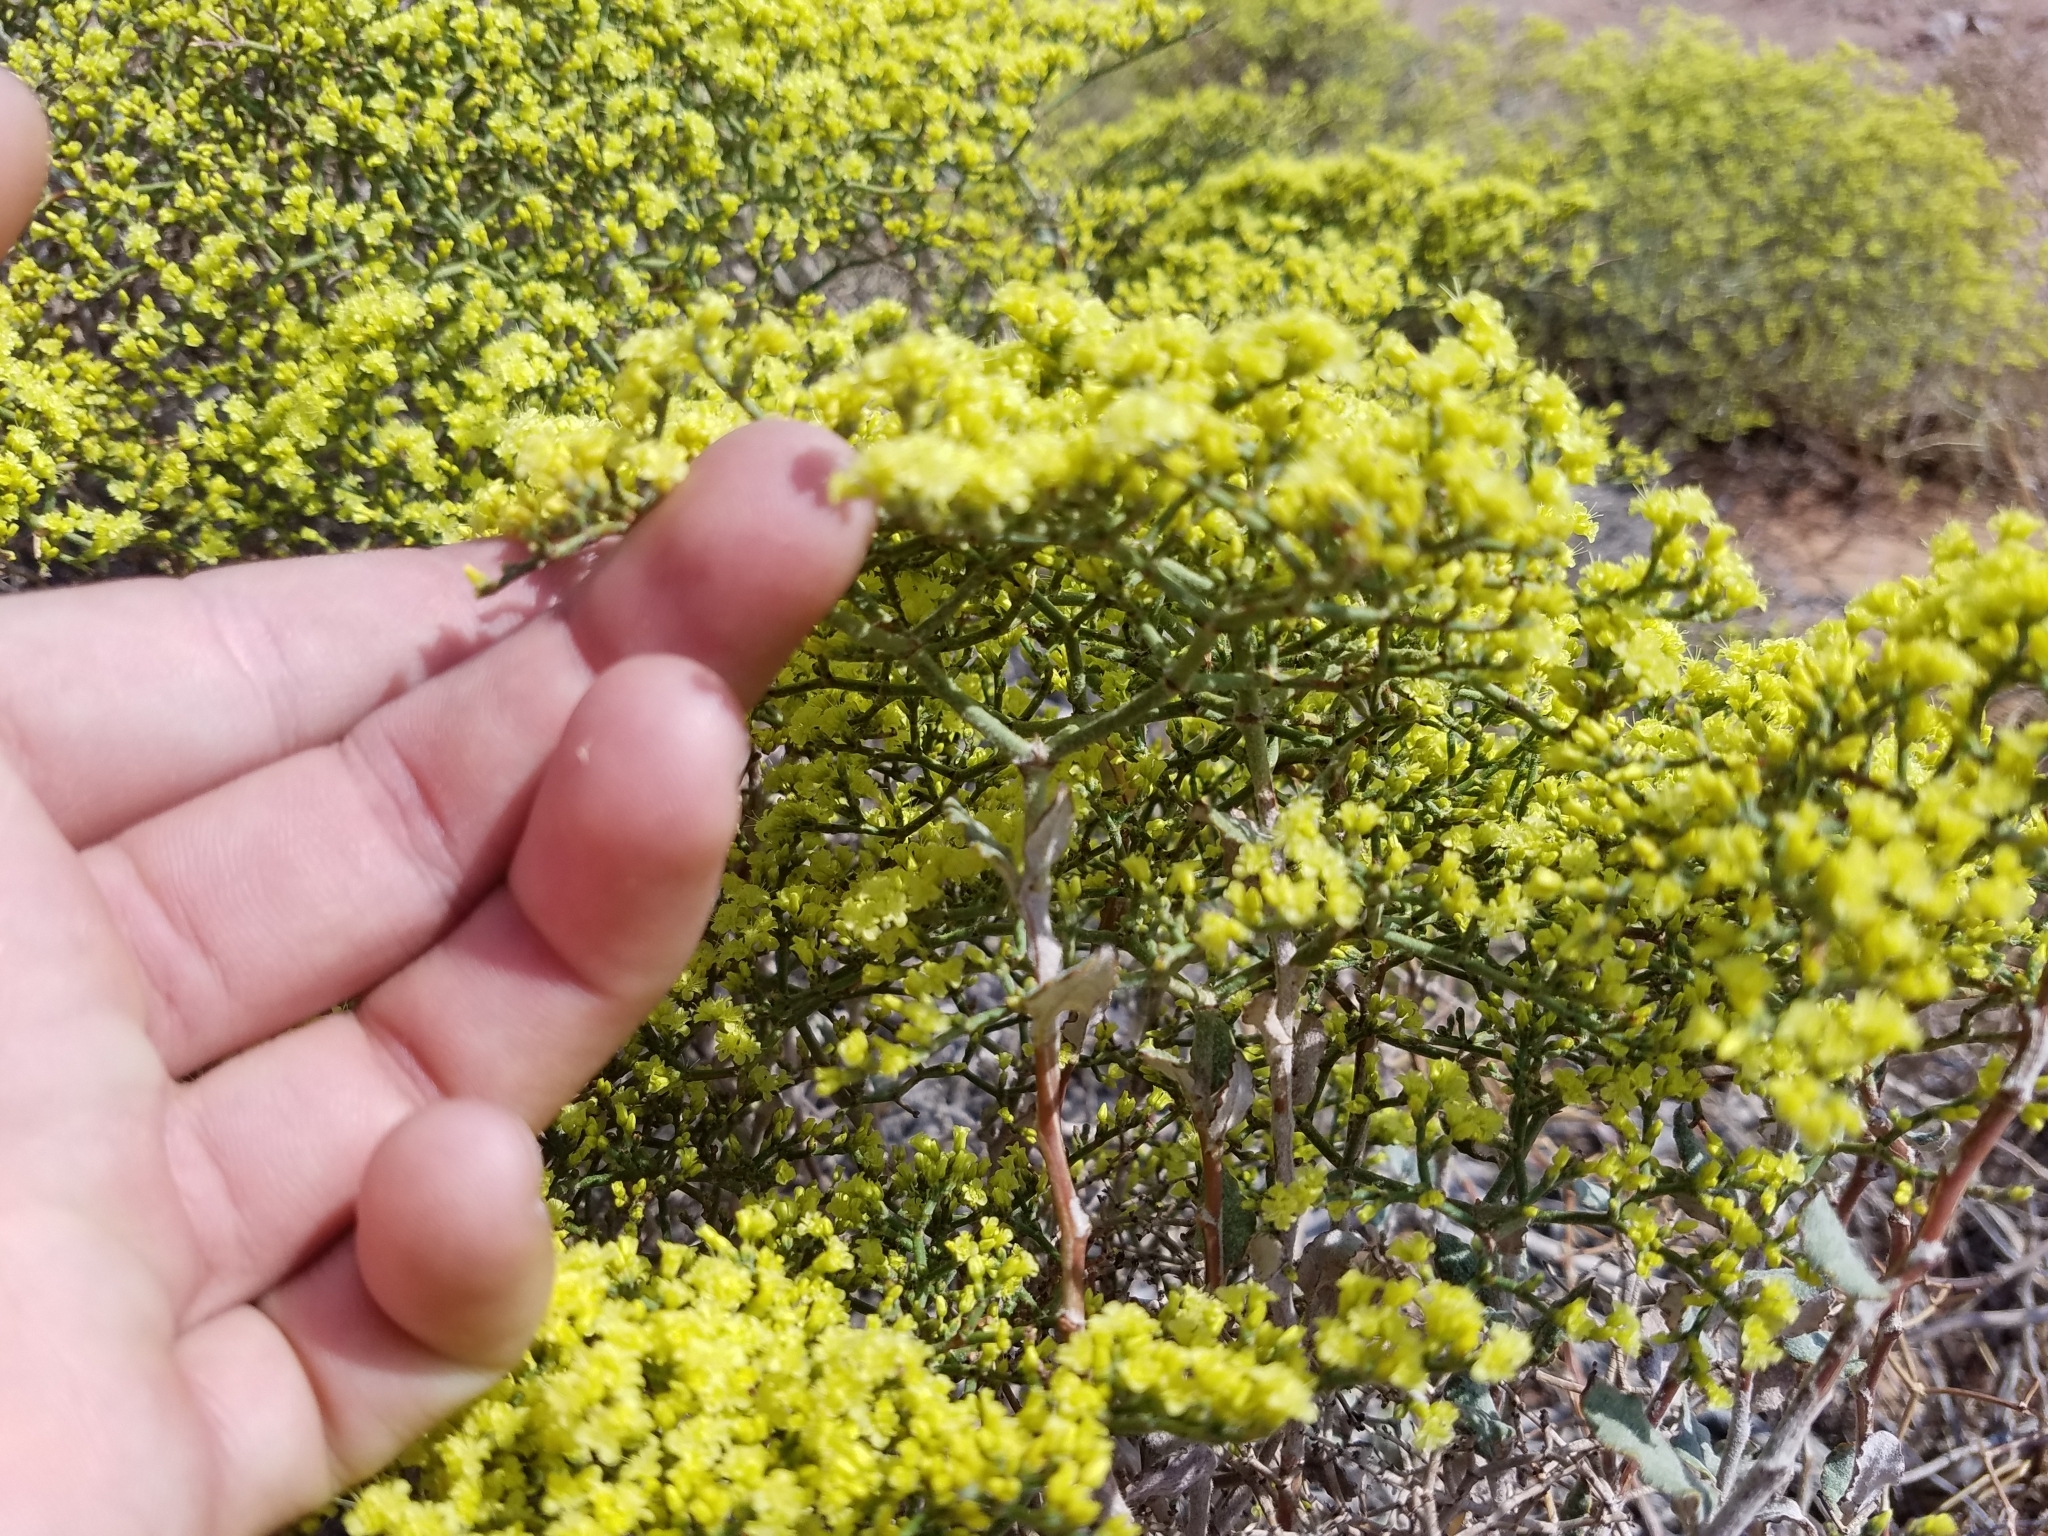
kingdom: Plantae
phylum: Tracheophyta
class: Magnoliopsida
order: Caryophyllales
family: Polygonaceae
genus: Eriogonum
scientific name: Eriogonum corymbosum
